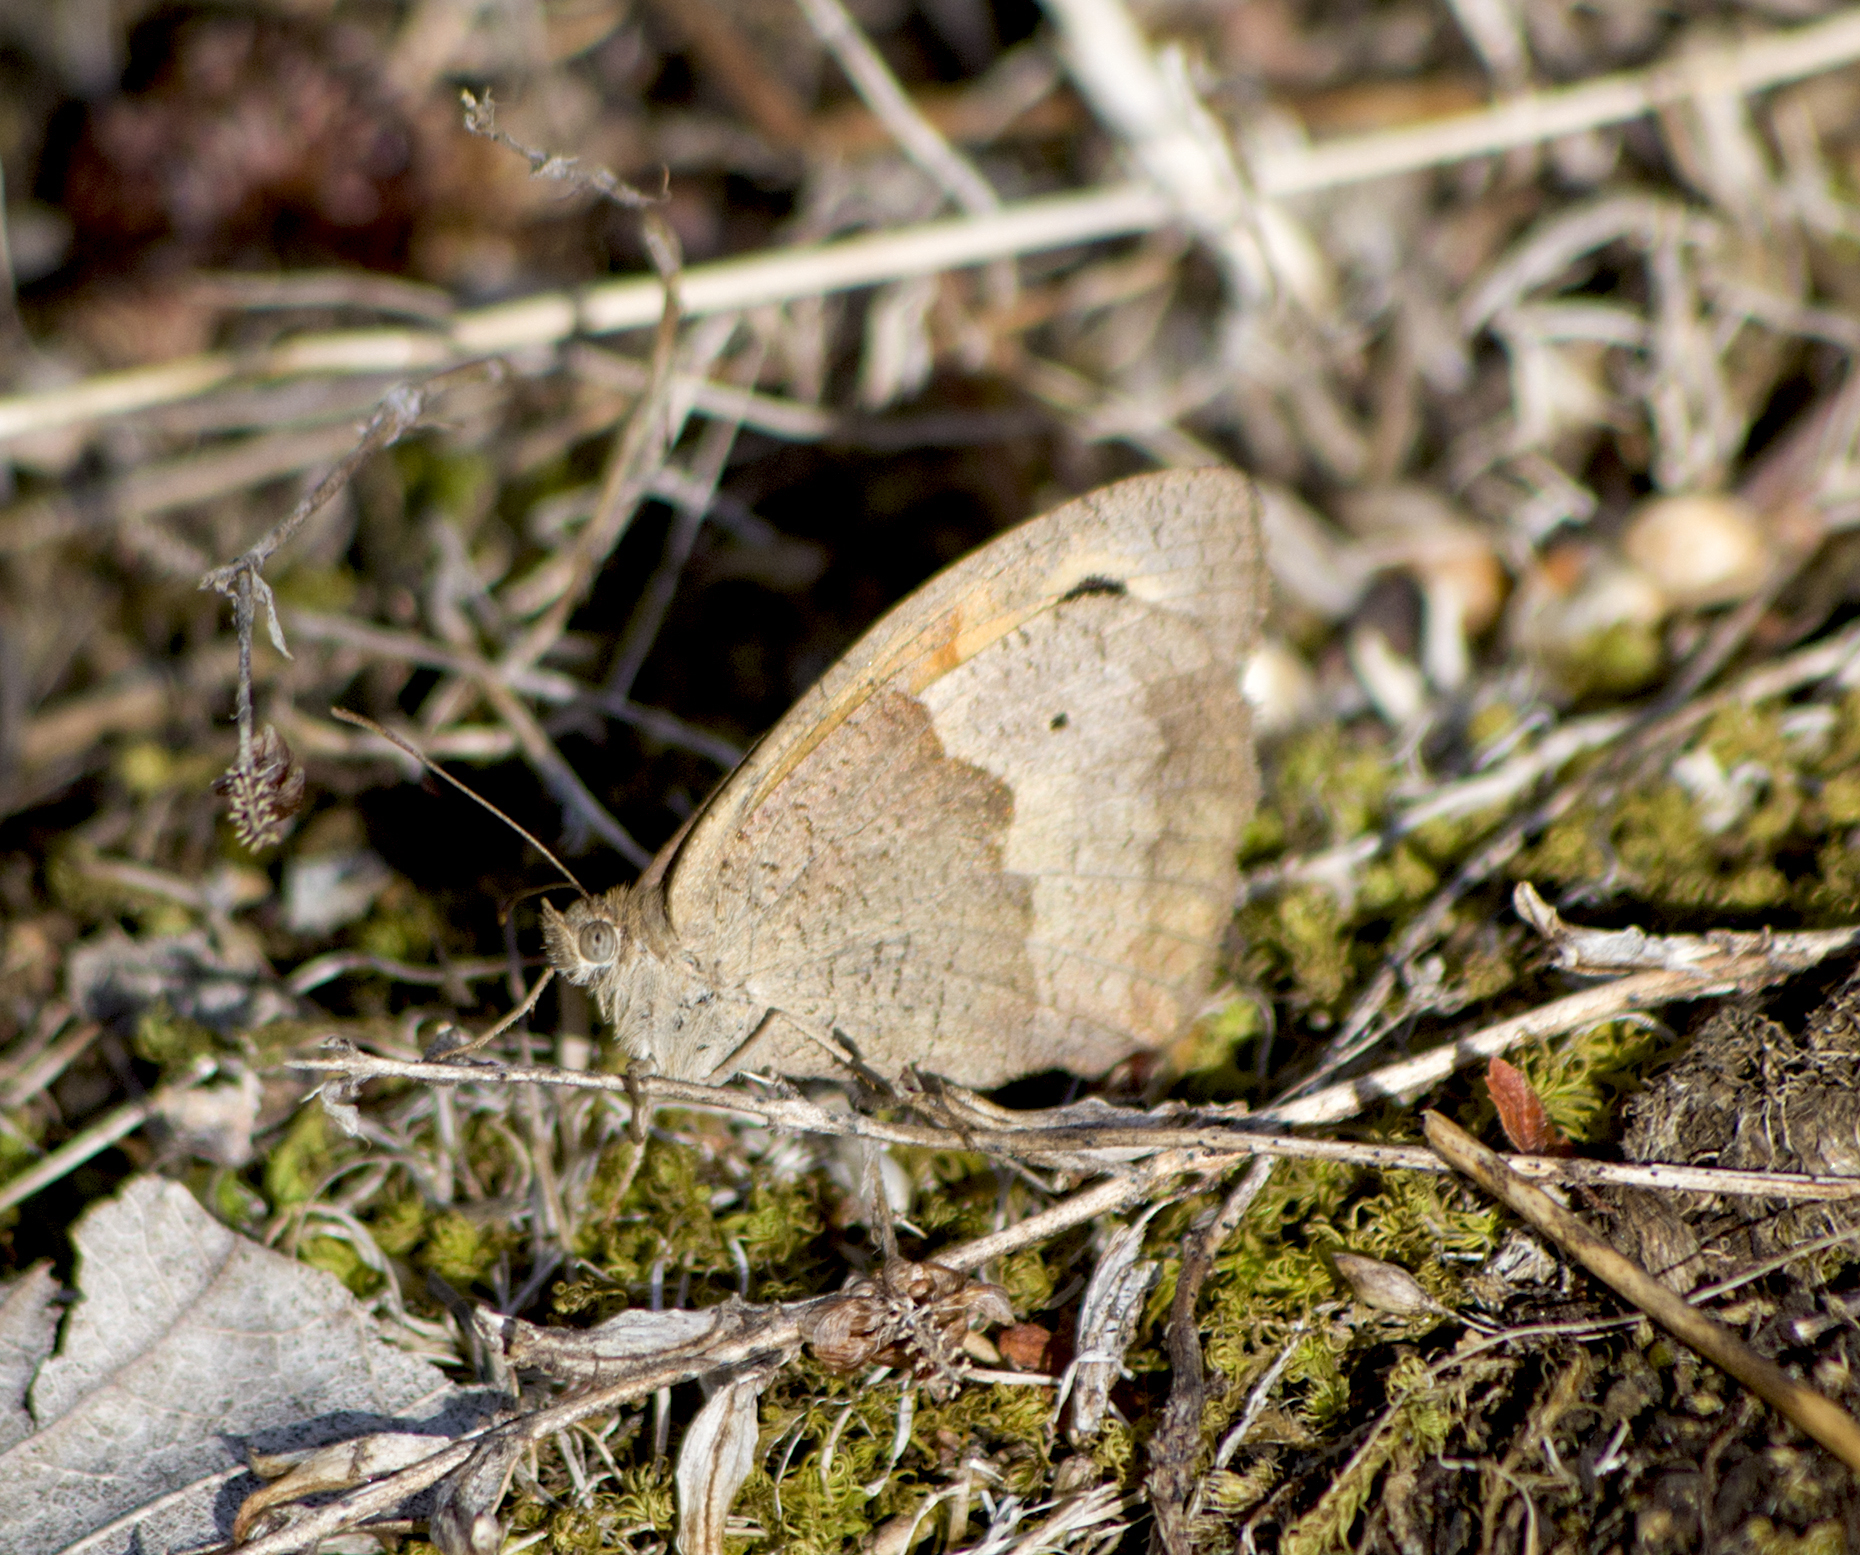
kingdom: Animalia
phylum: Arthropoda
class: Insecta
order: Lepidoptera
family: Nymphalidae
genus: Maniola
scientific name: Maniola jurtina
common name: Meadow brown
